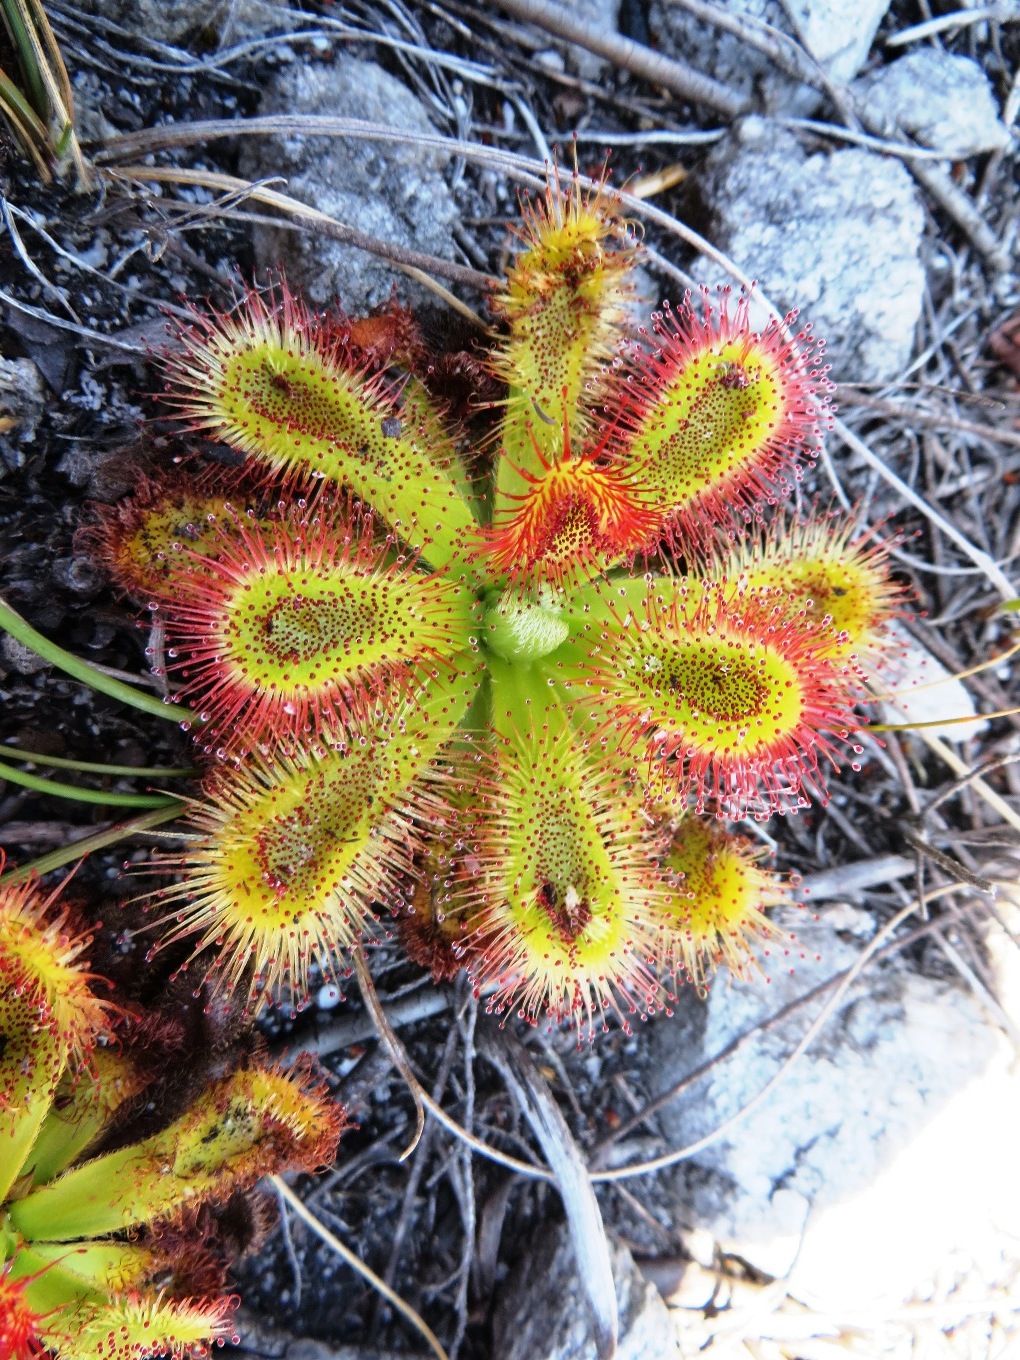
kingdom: Plantae
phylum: Tracheophyta
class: Magnoliopsida
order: Caryophyllales
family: Droseraceae
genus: Drosera
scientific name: Drosera aliciae
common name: Alice sundew
